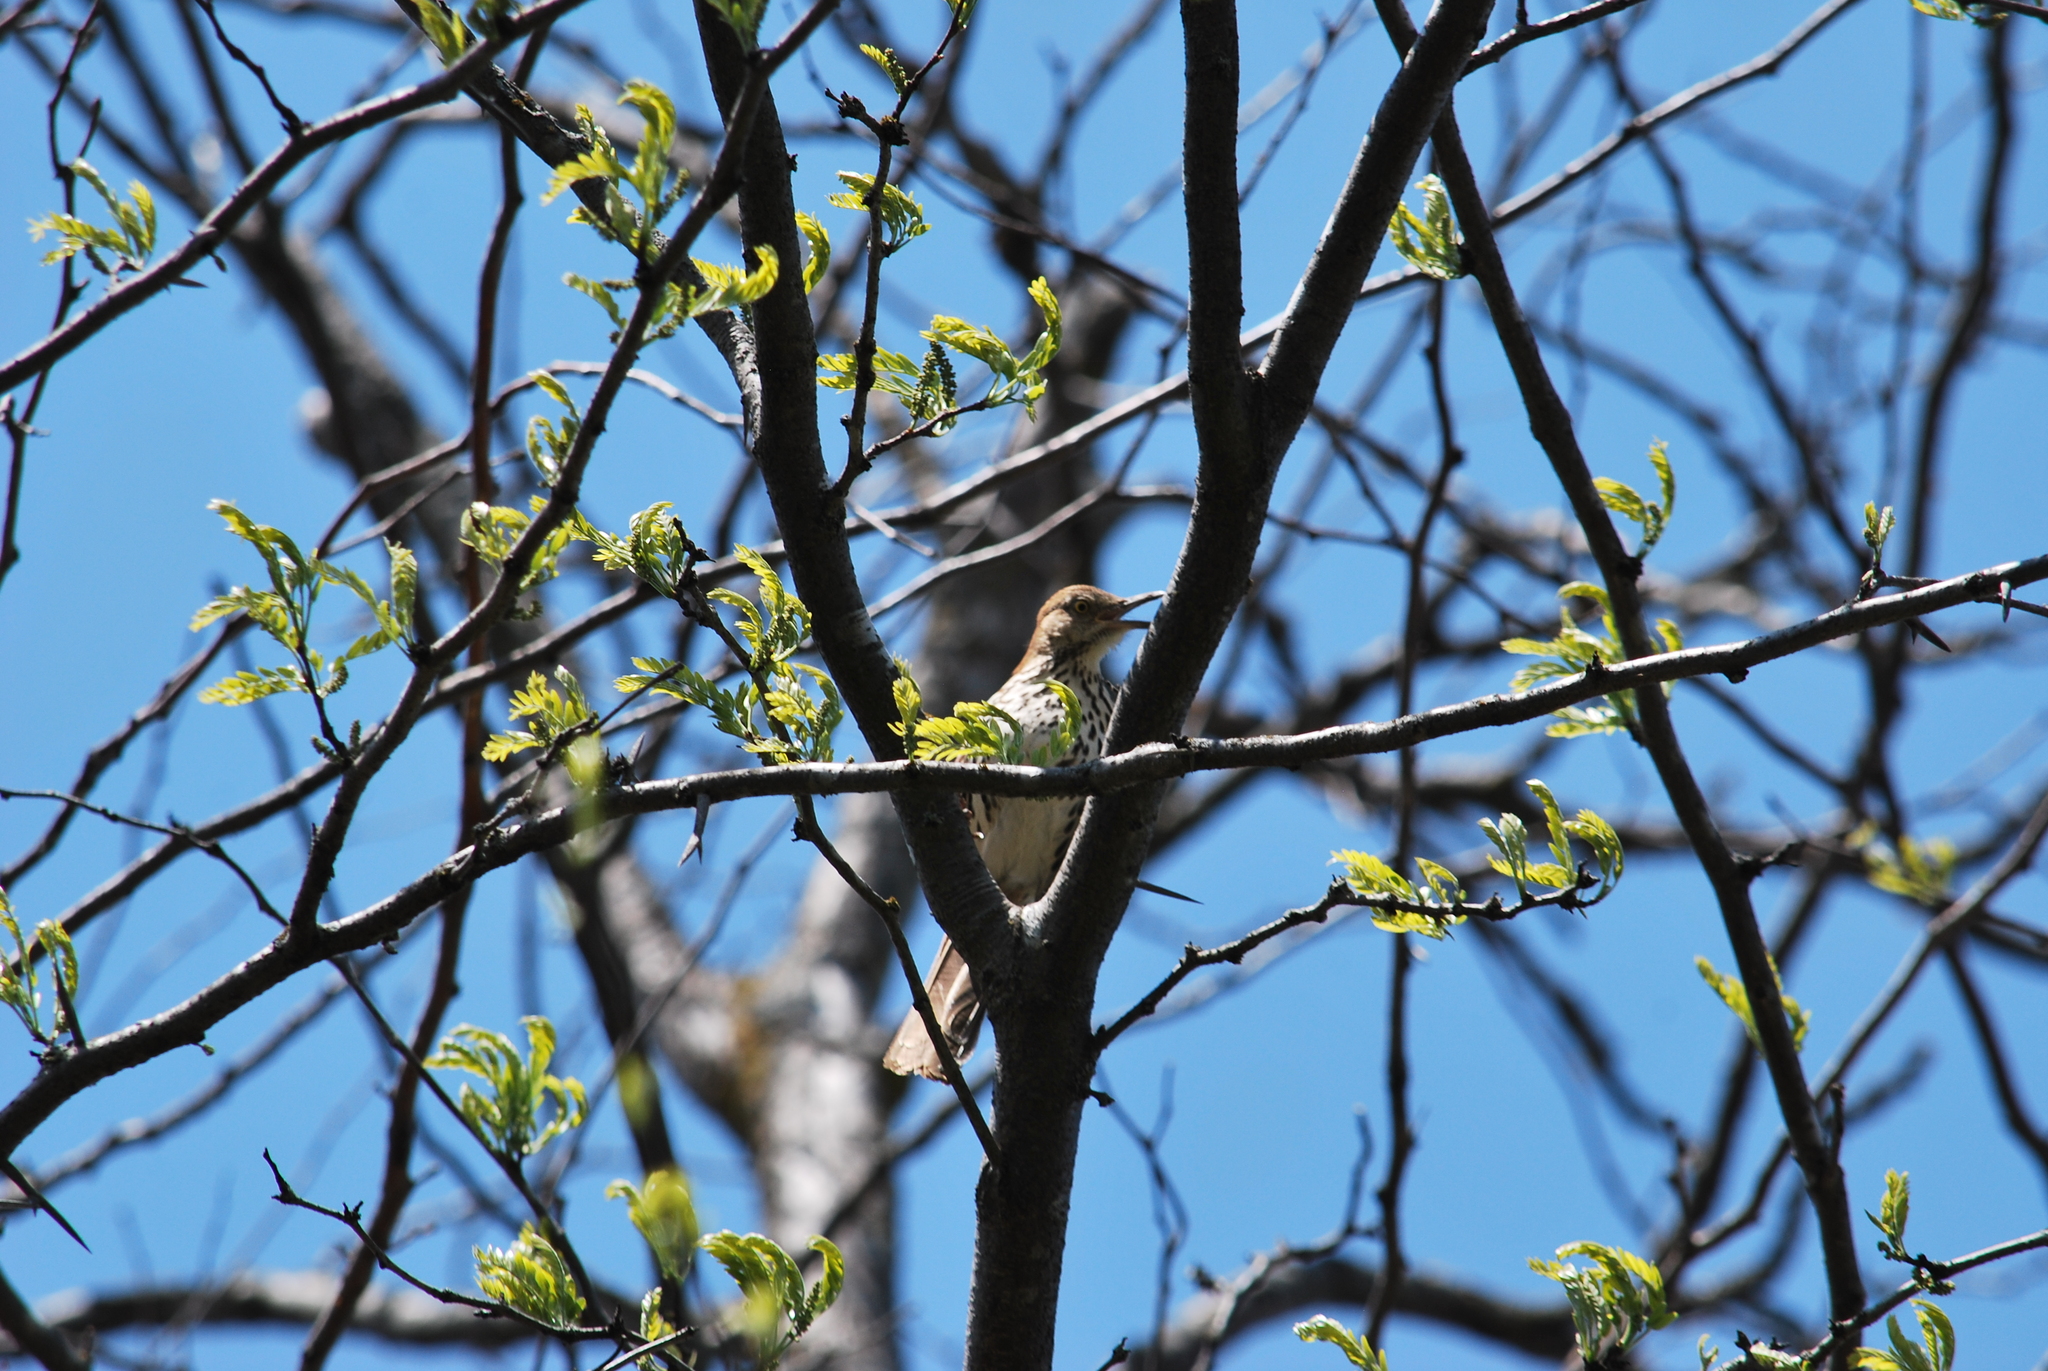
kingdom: Animalia
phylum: Chordata
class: Aves
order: Passeriformes
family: Mimidae
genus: Toxostoma
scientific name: Toxostoma rufum
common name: Brown thrasher
